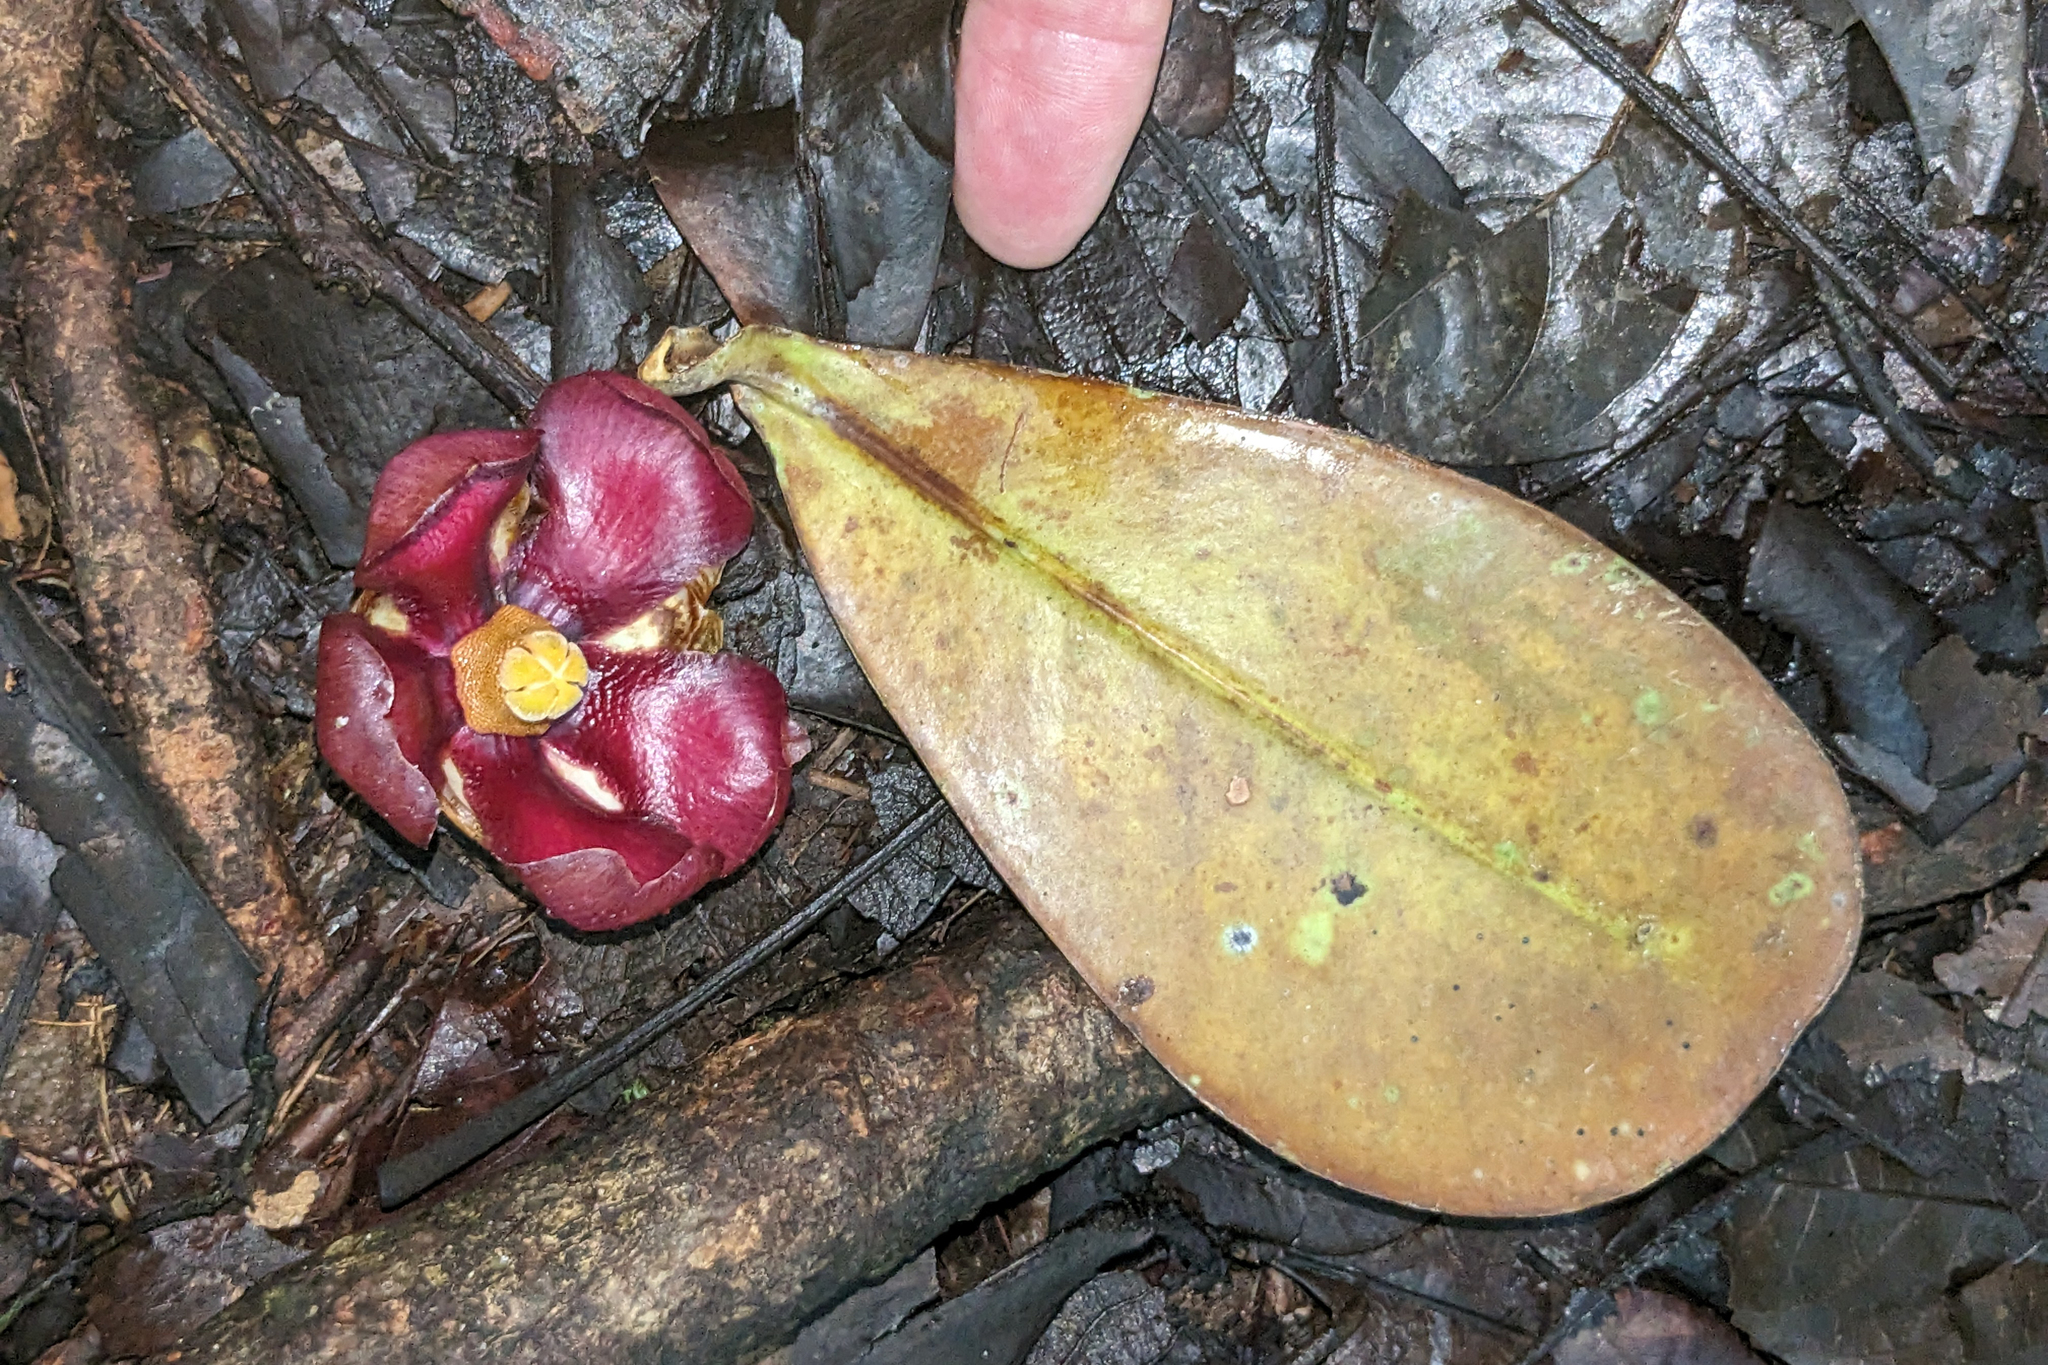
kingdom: Plantae
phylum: Tracheophyta
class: Magnoliopsida
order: Malpighiales
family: Clusiaceae
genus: Clusia
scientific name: Clusia weddelliana
